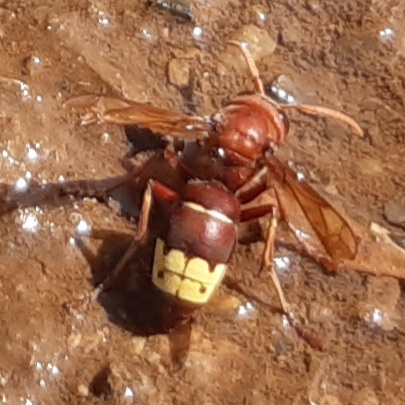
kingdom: Animalia
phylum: Arthropoda
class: Insecta
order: Hymenoptera
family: Vespidae
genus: Vespa
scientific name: Vespa orientalis
